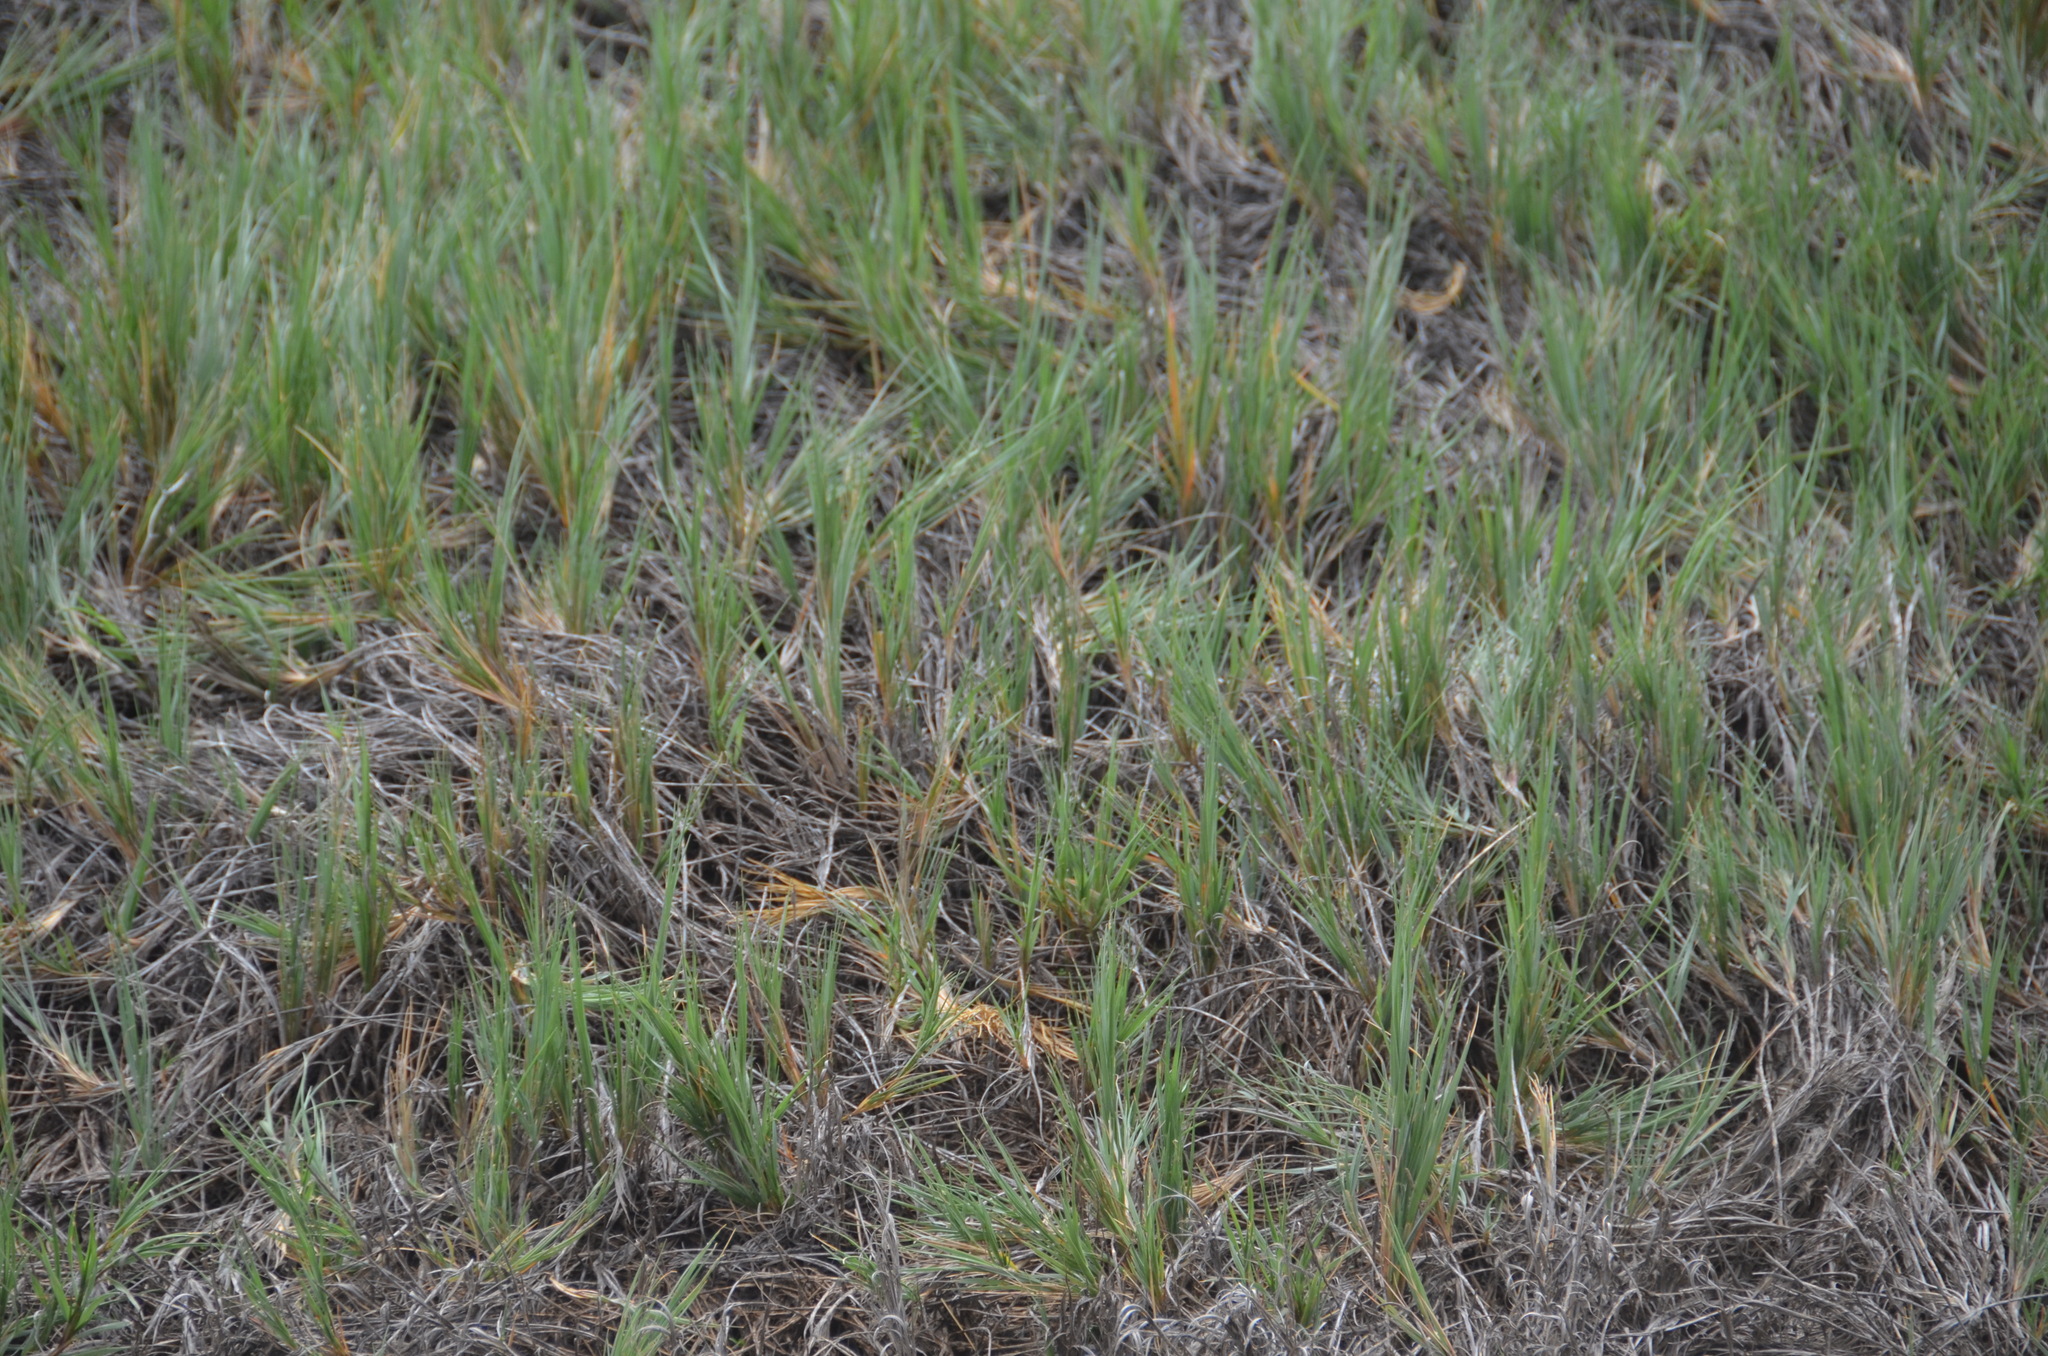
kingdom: Plantae
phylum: Tracheophyta
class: Liliopsida
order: Poales
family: Poaceae
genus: Sporobolus
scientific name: Sporobolus virginicus
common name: Beach dropseed
